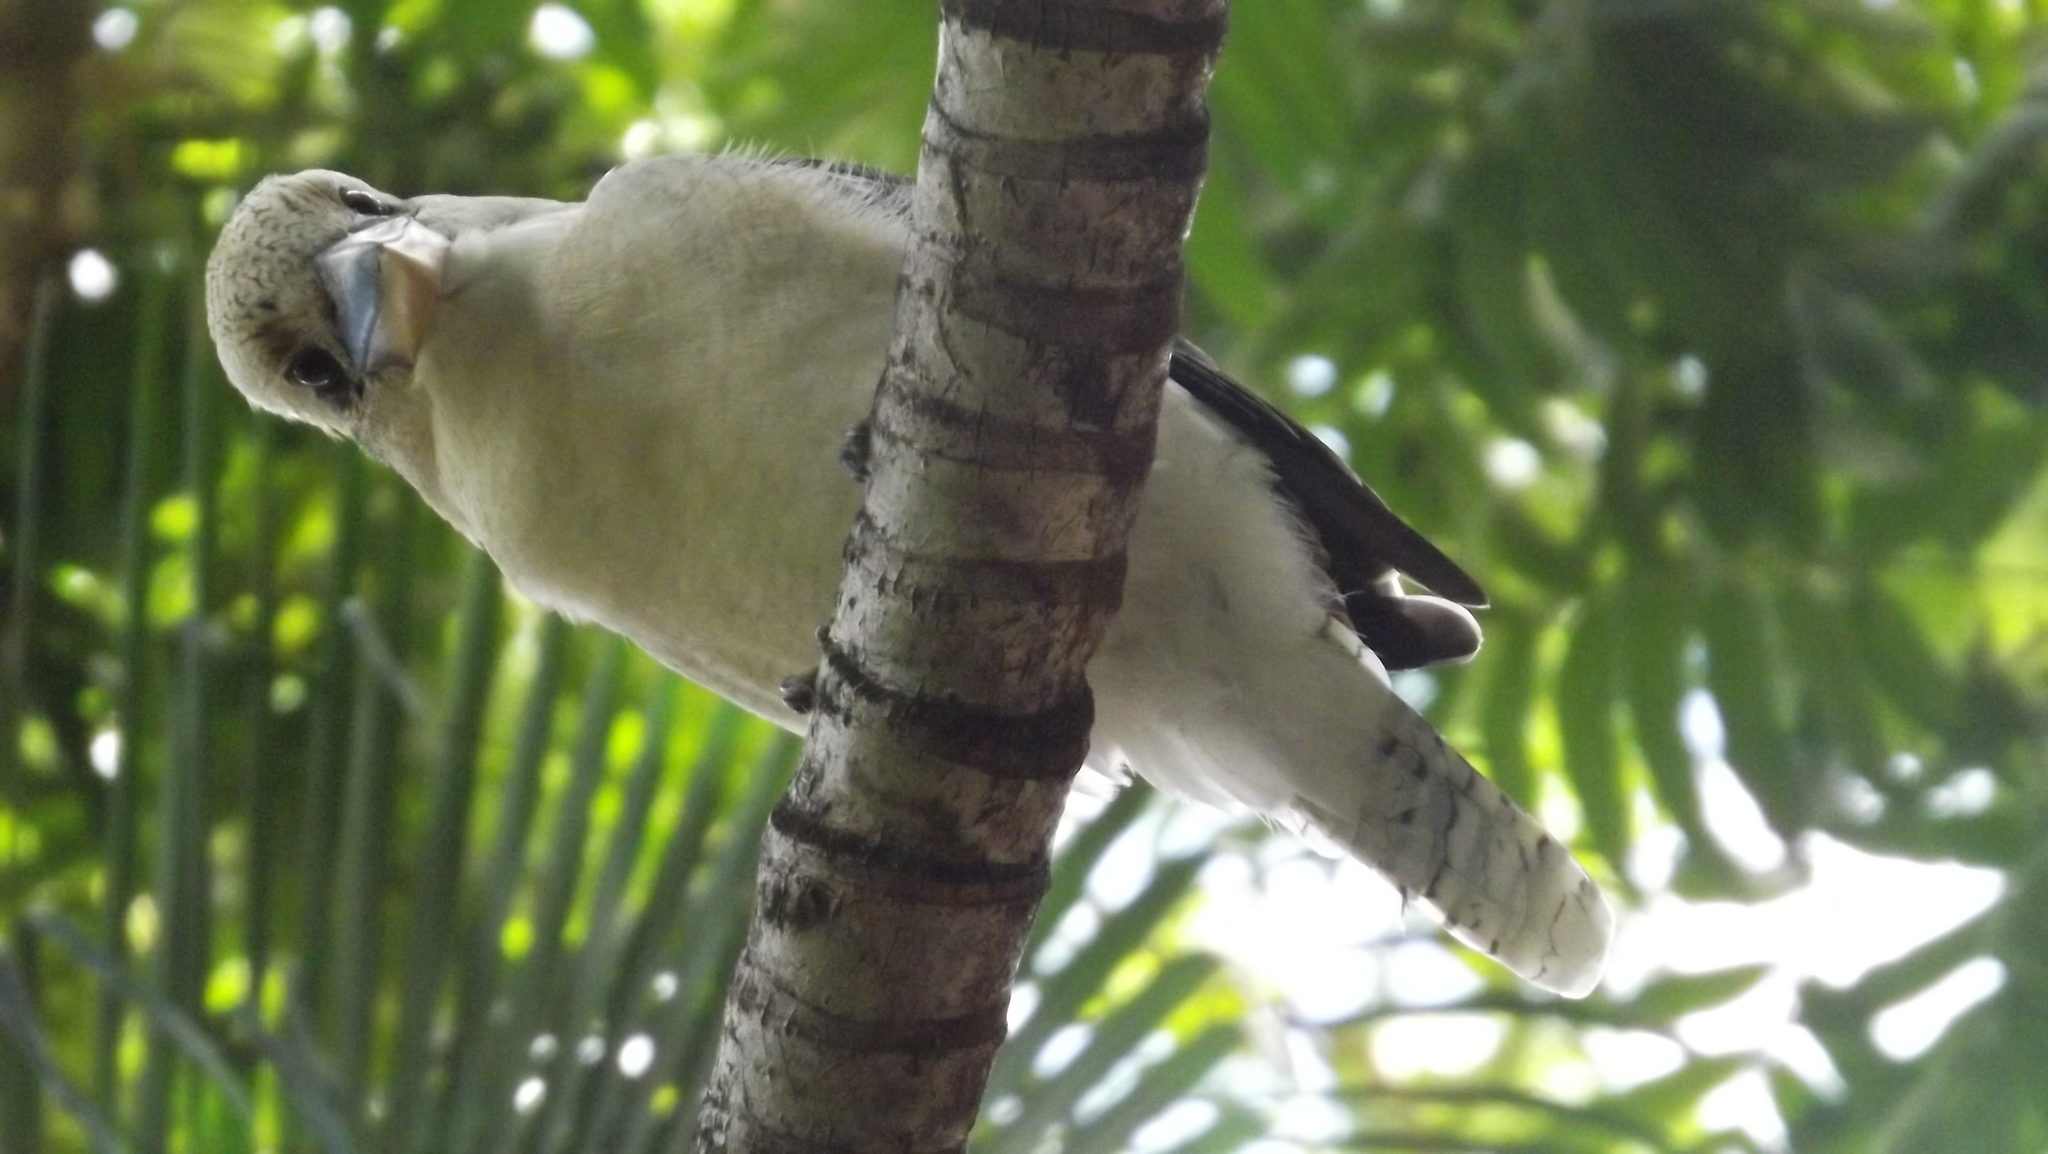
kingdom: Animalia
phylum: Chordata
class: Aves
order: Coraciiformes
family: Alcedinidae
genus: Dacelo
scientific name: Dacelo novaeguineae
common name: Laughing kookaburra
